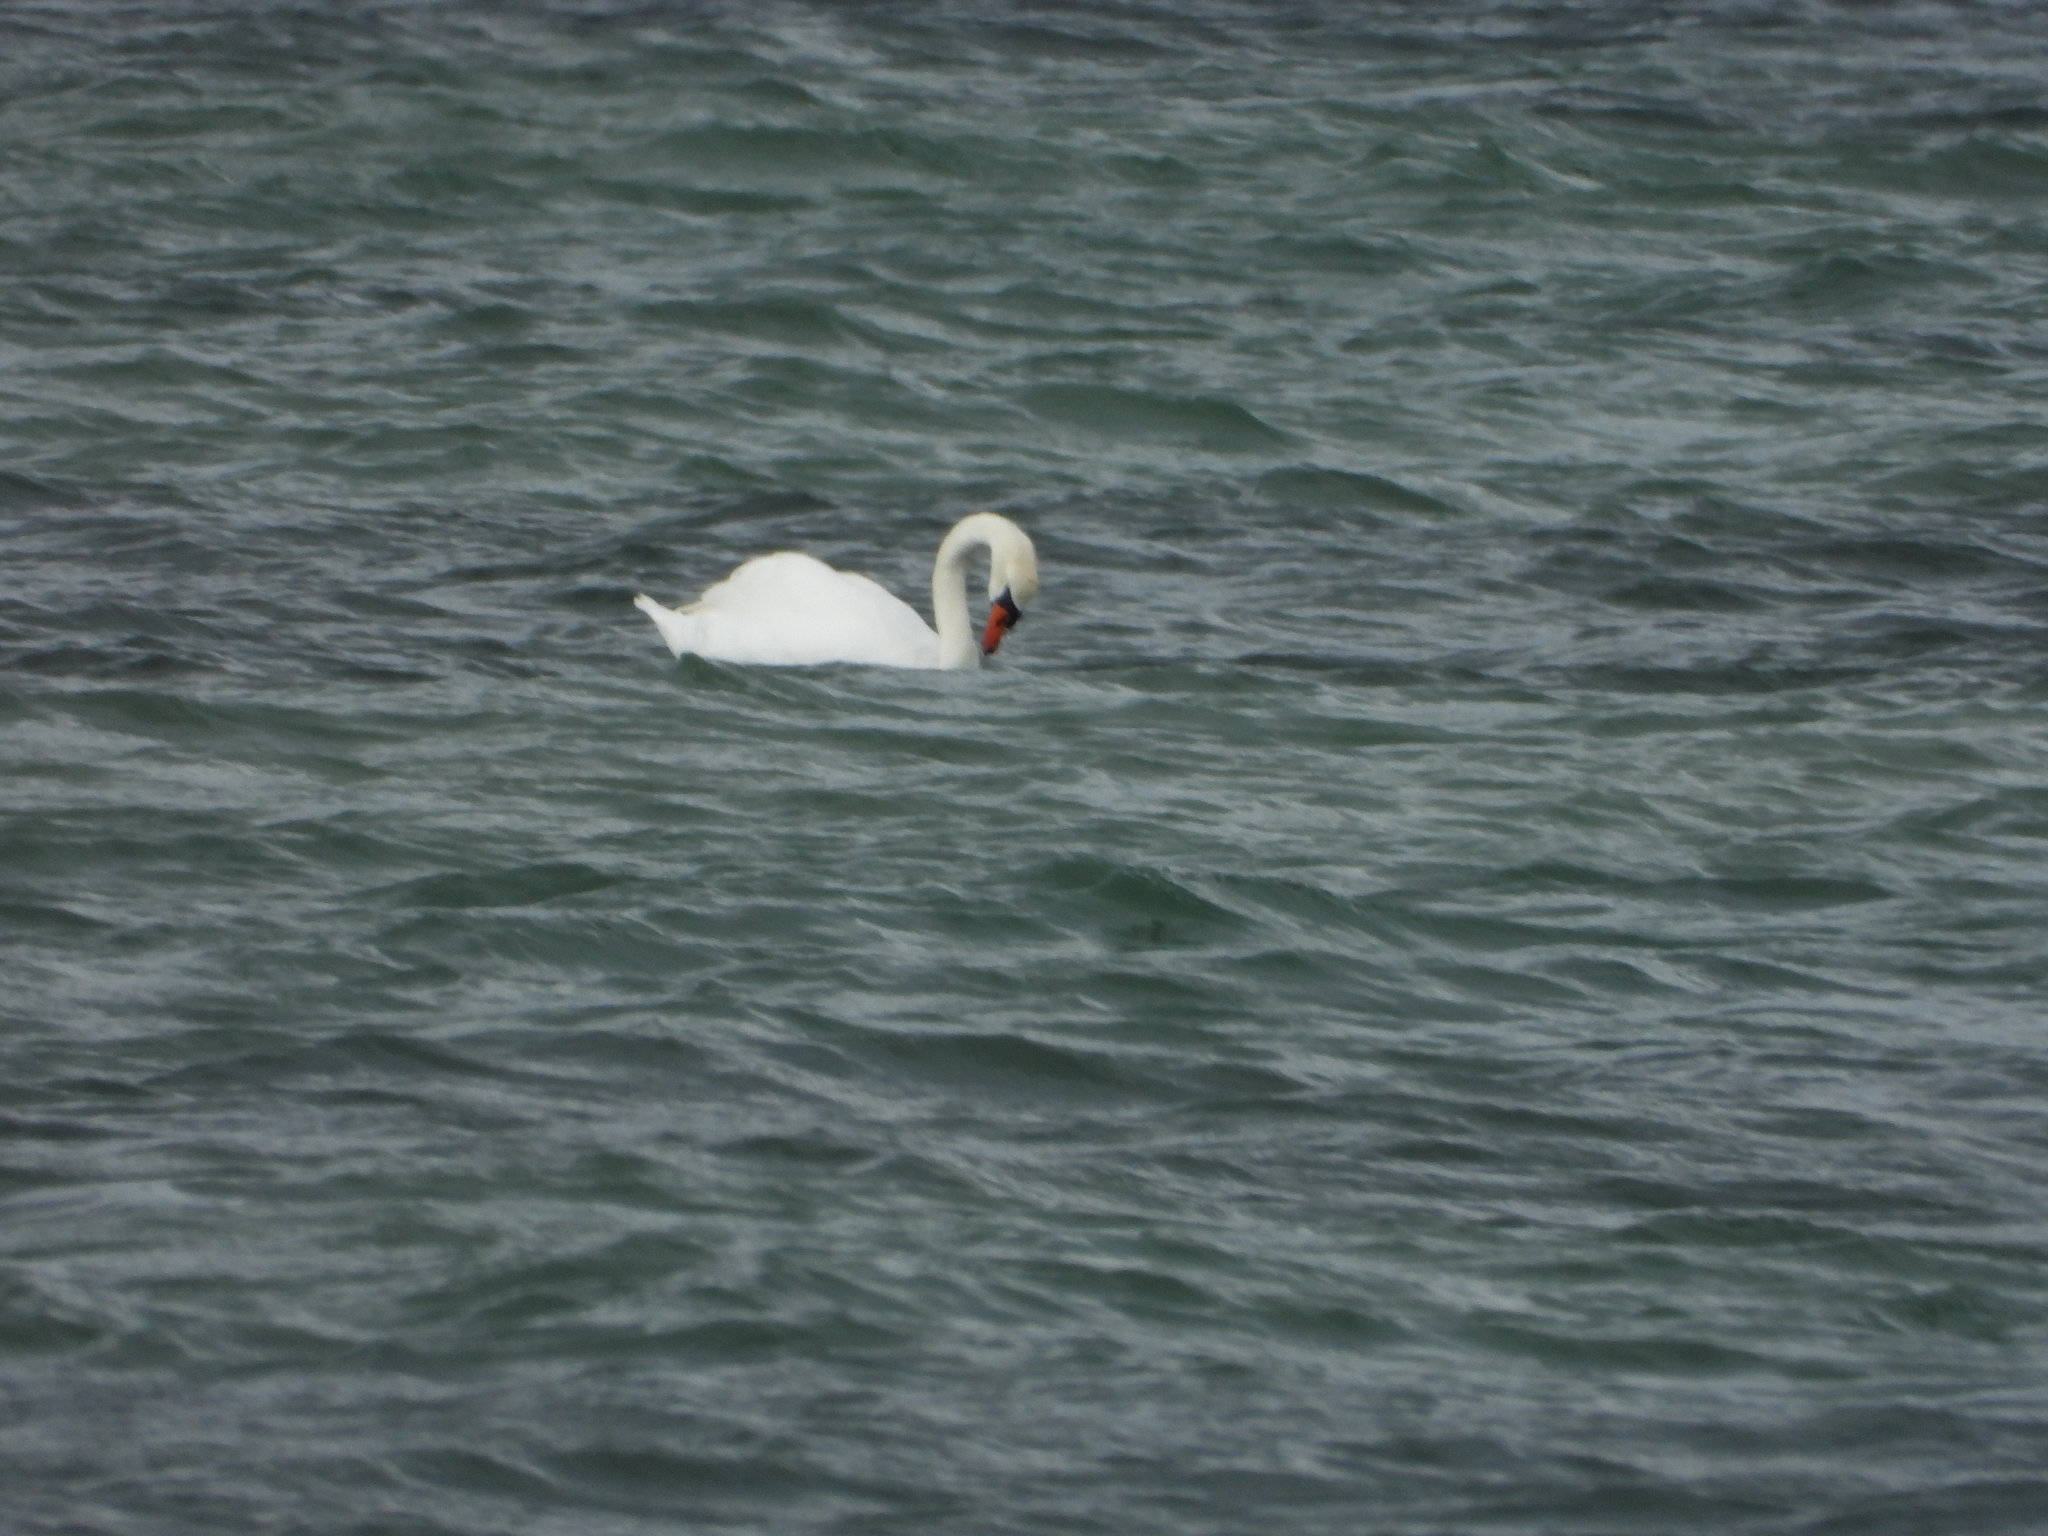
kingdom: Animalia
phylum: Chordata
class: Aves
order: Anseriformes
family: Anatidae
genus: Cygnus
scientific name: Cygnus olor
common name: Mute swan
